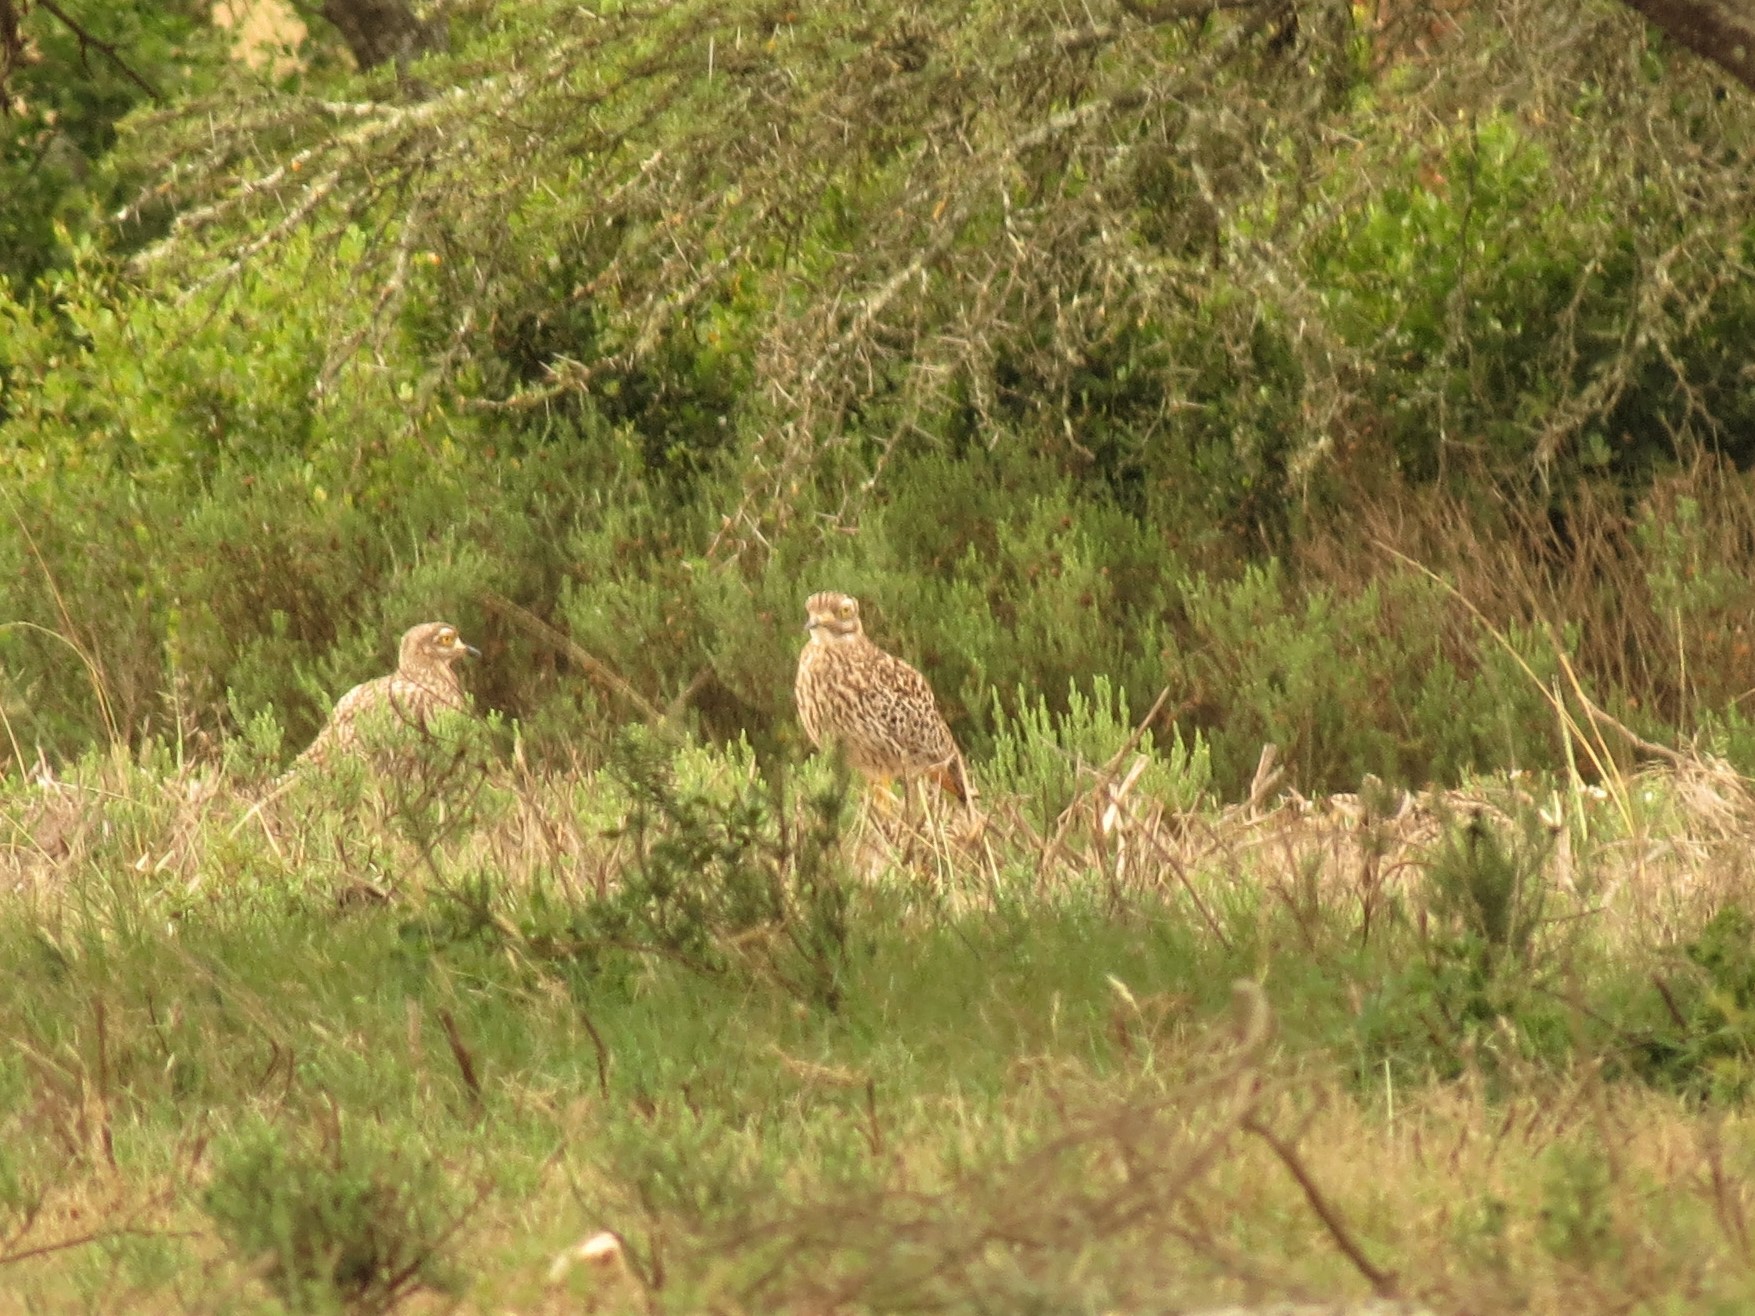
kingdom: Animalia
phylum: Chordata
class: Aves
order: Charadriiformes
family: Burhinidae
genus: Burhinus
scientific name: Burhinus capensis
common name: Spotted thick-knee
